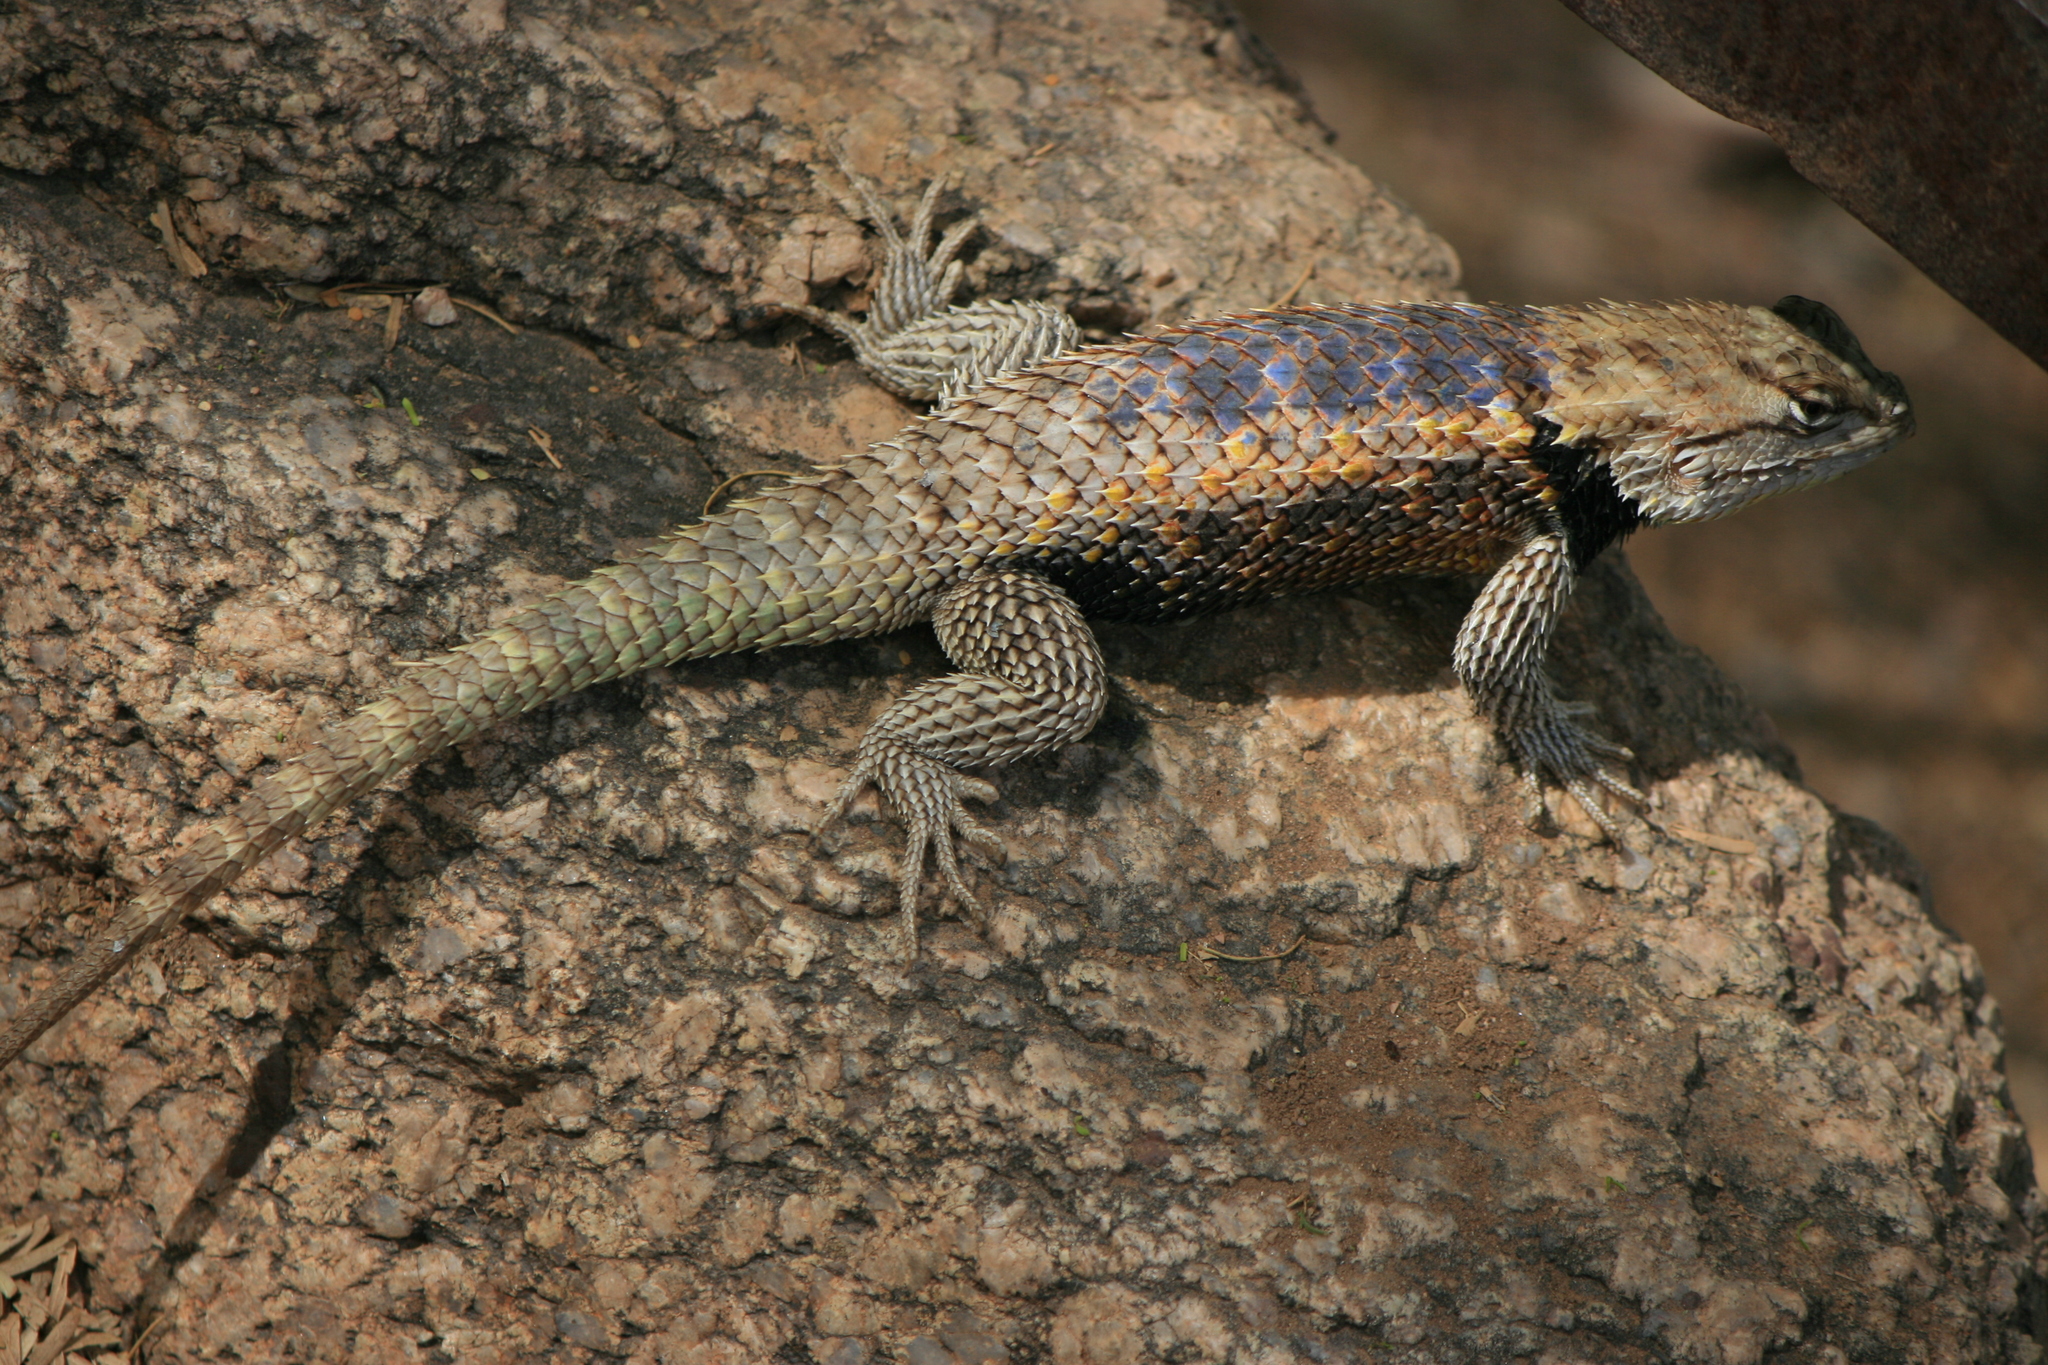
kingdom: Animalia
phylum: Chordata
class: Squamata
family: Phrynosomatidae
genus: Sceloporus
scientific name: Sceloporus magister
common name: Desert spiny lizard
